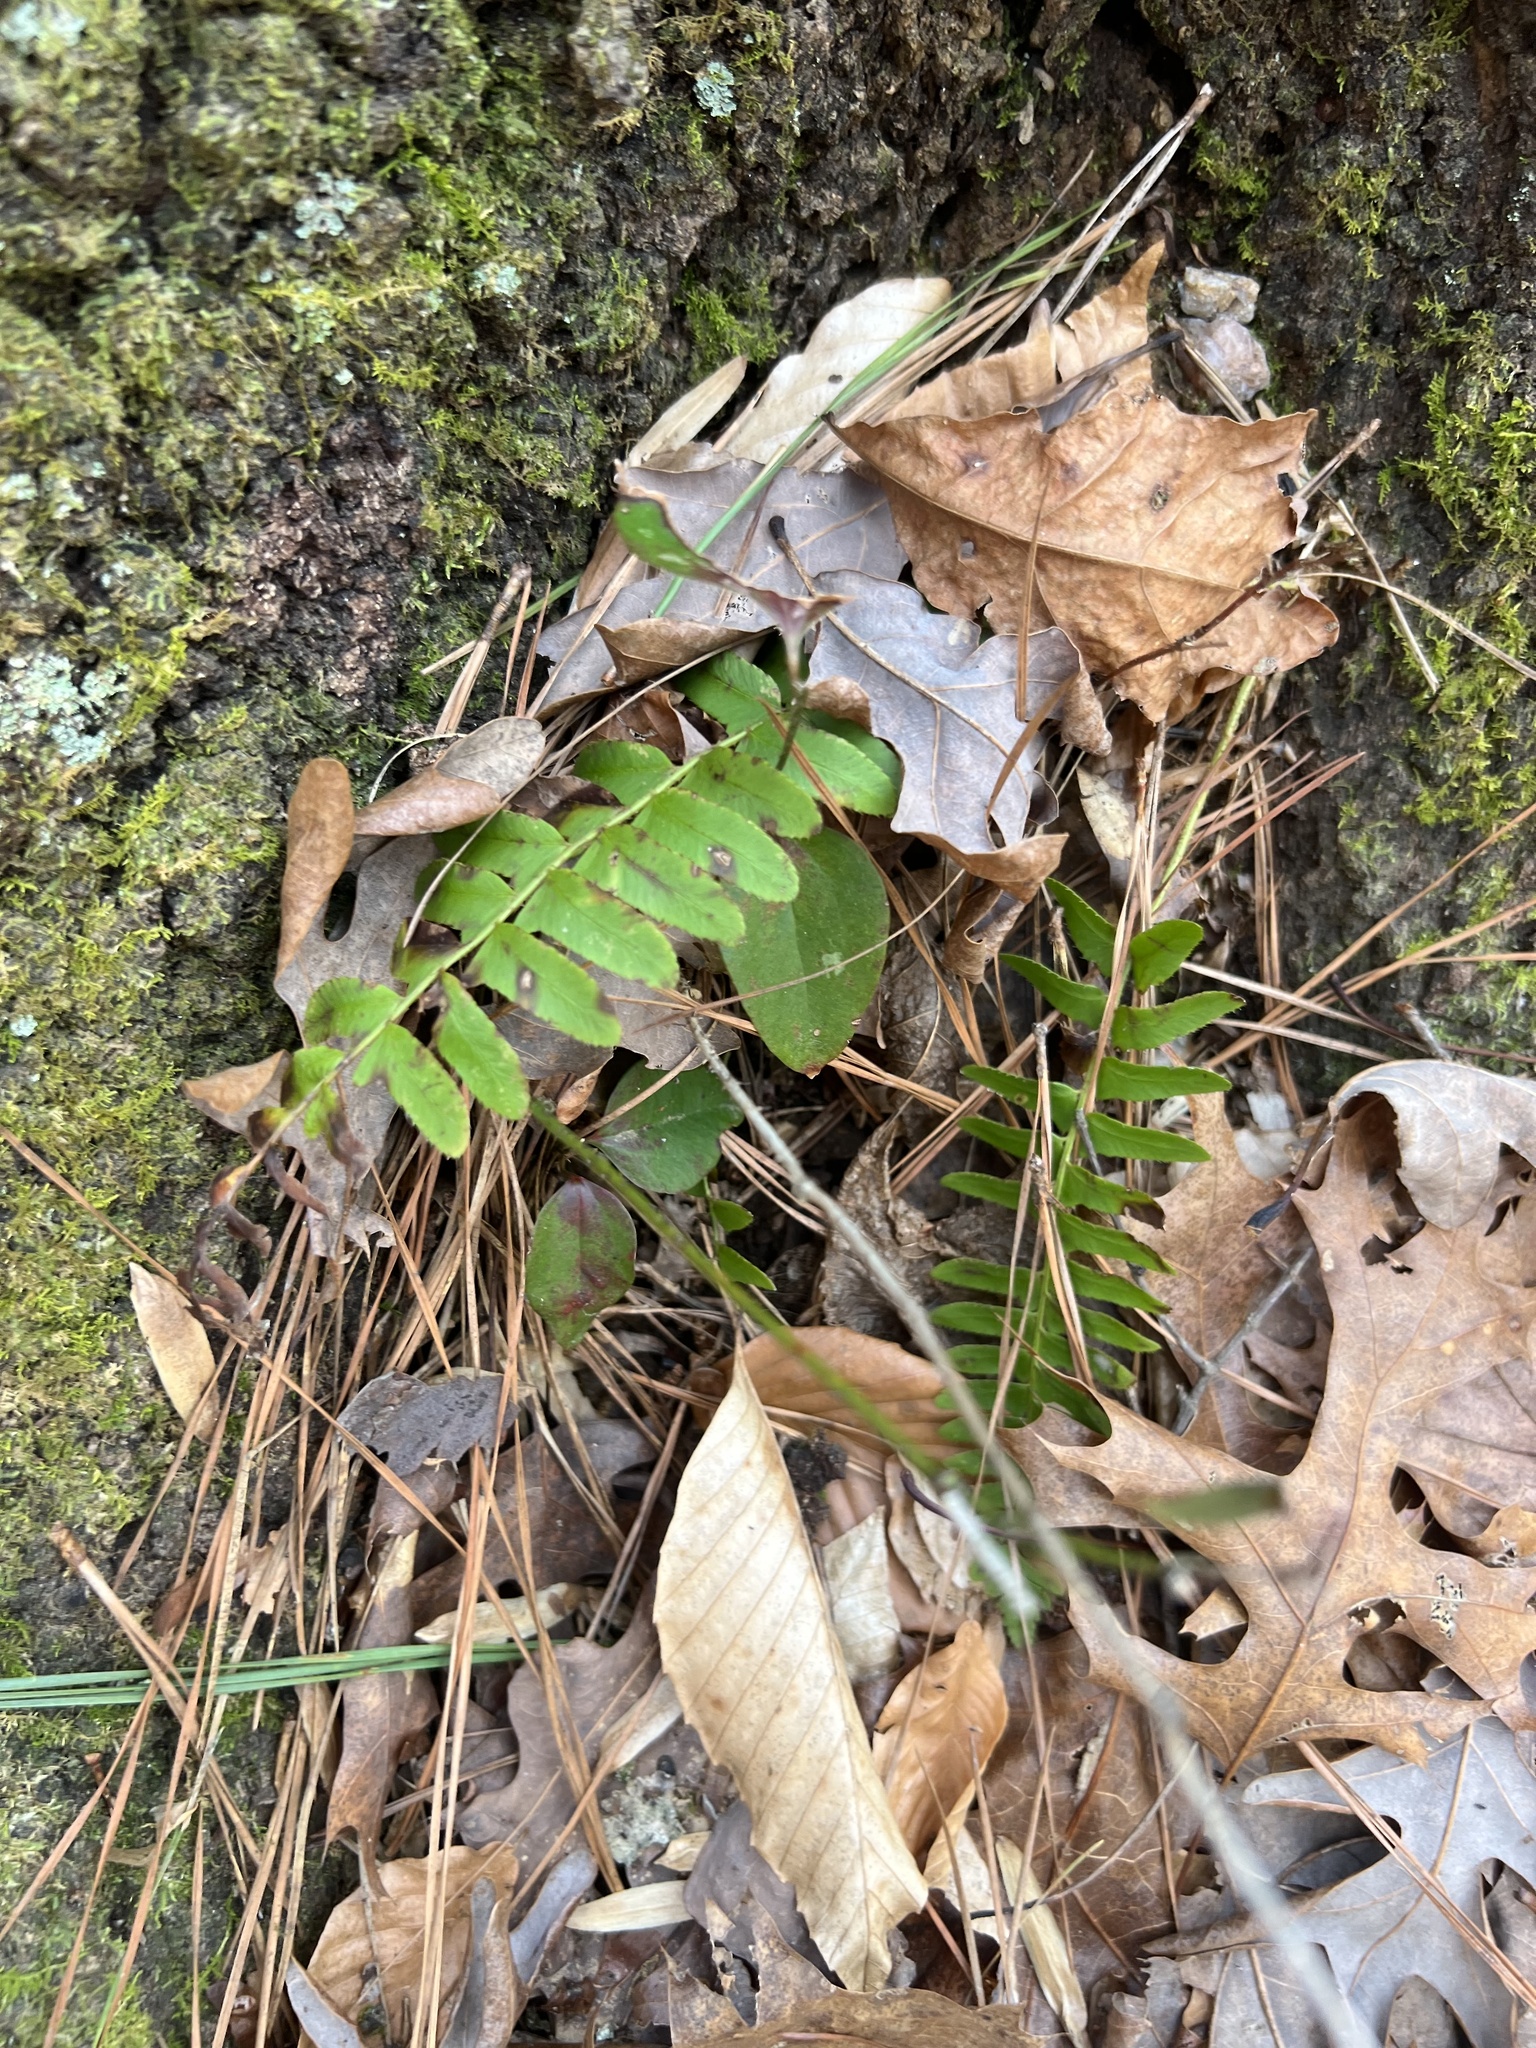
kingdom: Plantae
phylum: Tracheophyta
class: Polypodiopsida
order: Polypodiales
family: Dryopteridaceae
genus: Polystichum
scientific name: Polystichum acrostichoides
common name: Christmas fern
